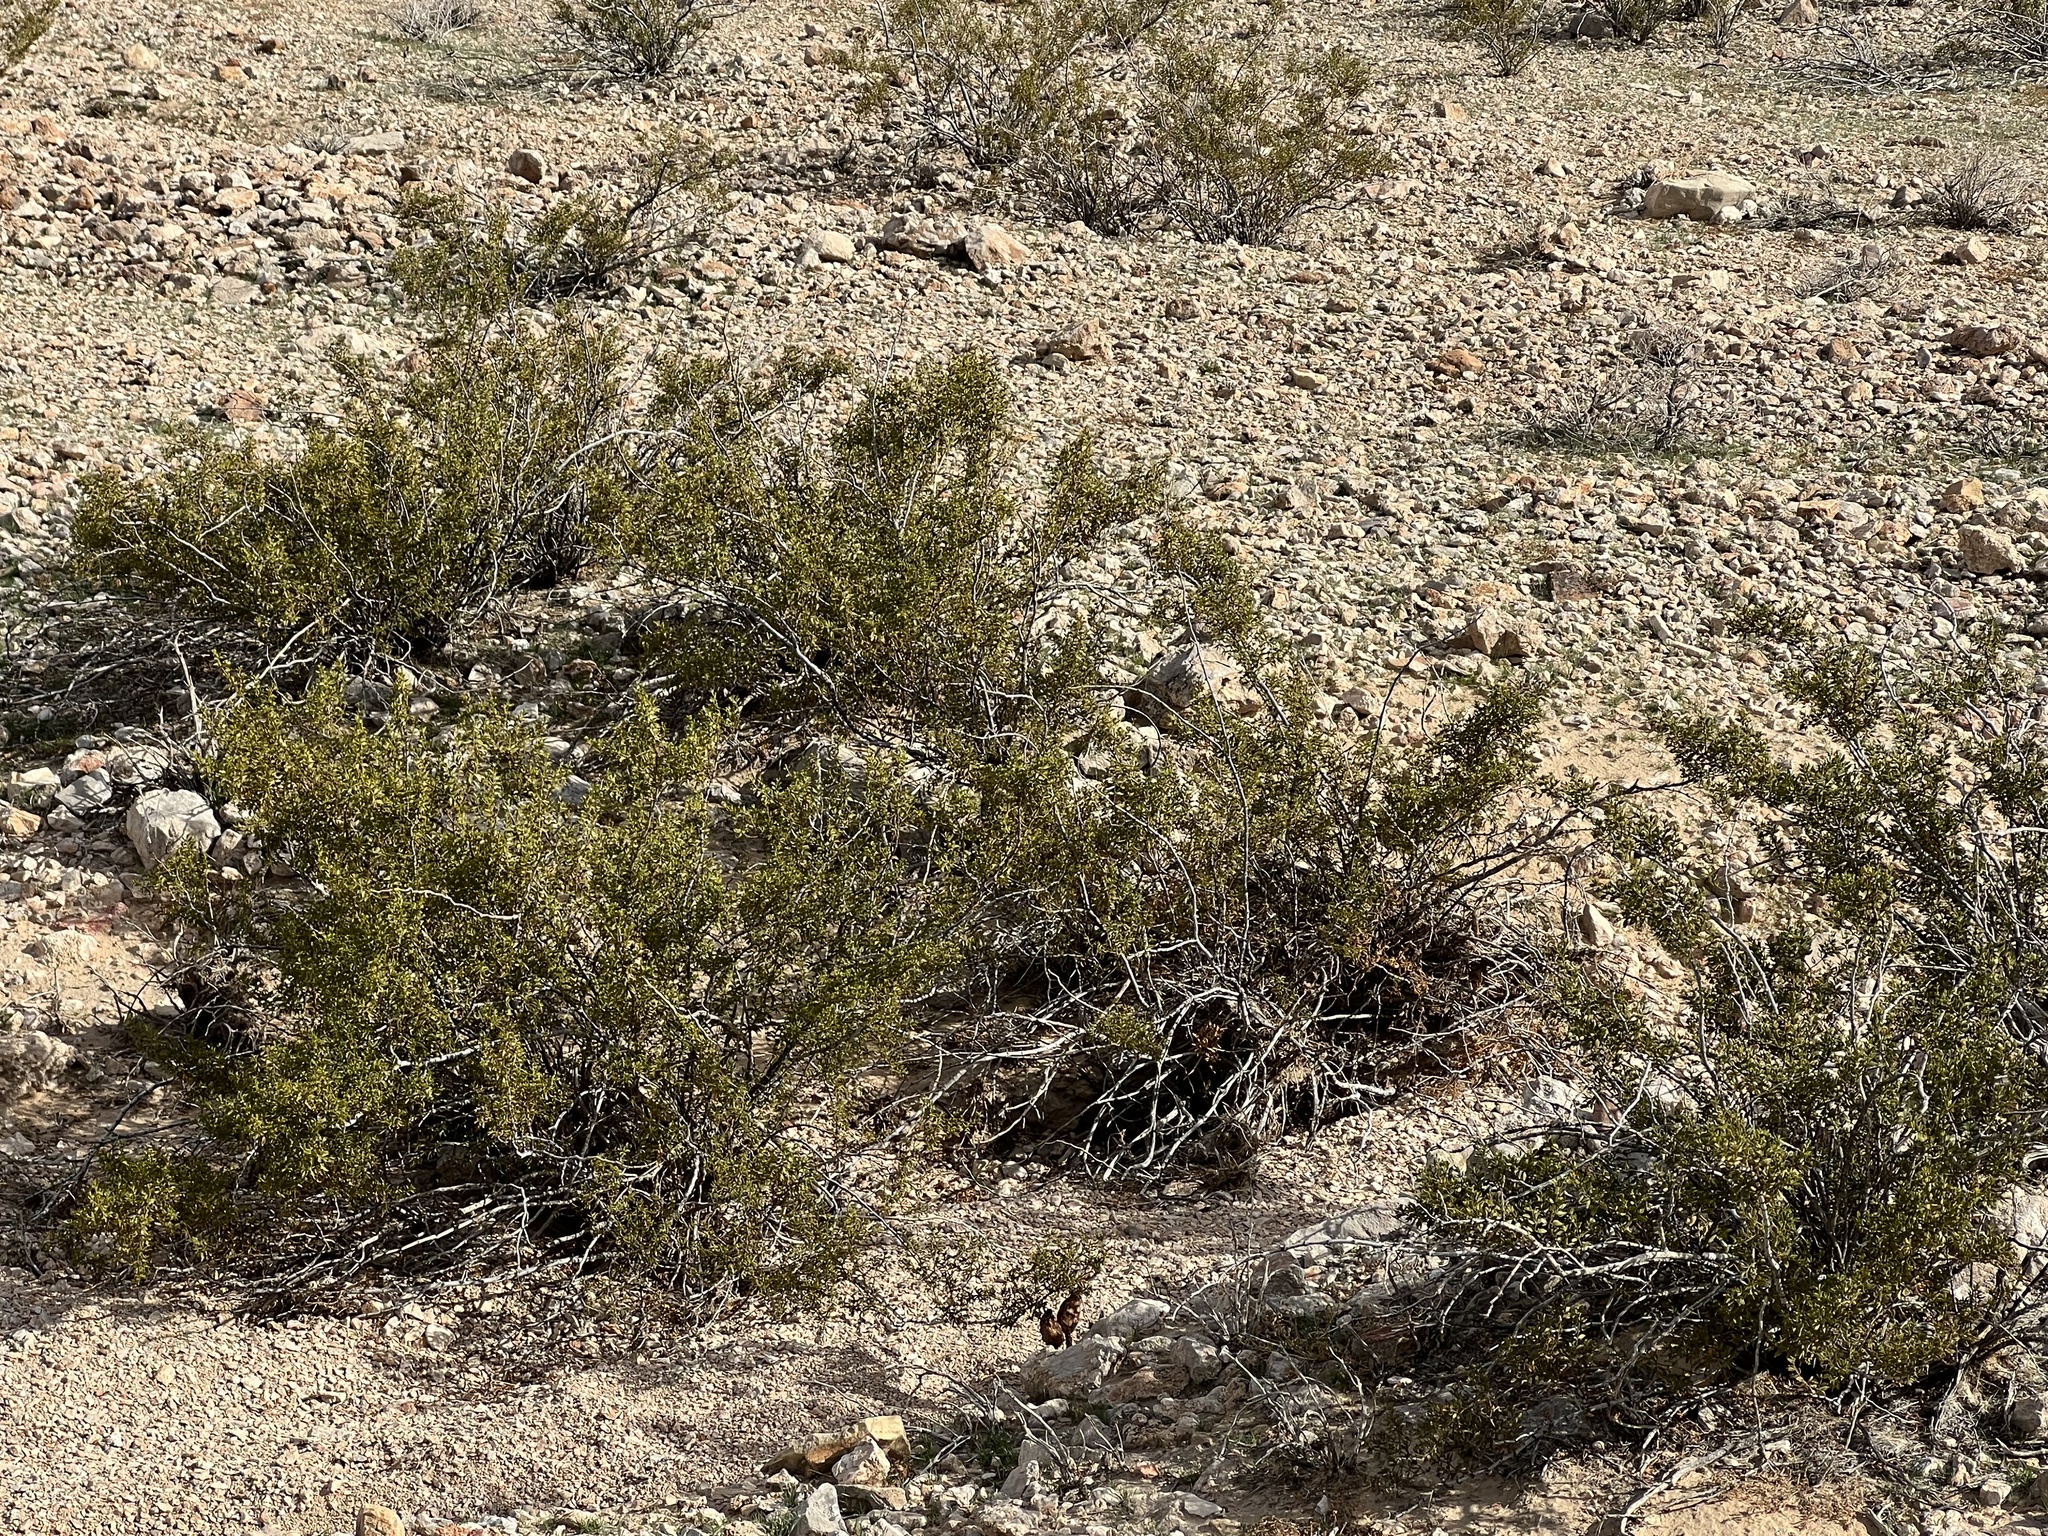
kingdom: Plantae
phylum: Tracheophyta
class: Magnoliopsida
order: Zygophyllales
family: Zygophyllaceae
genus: Larrea
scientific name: Larrea tridentata
